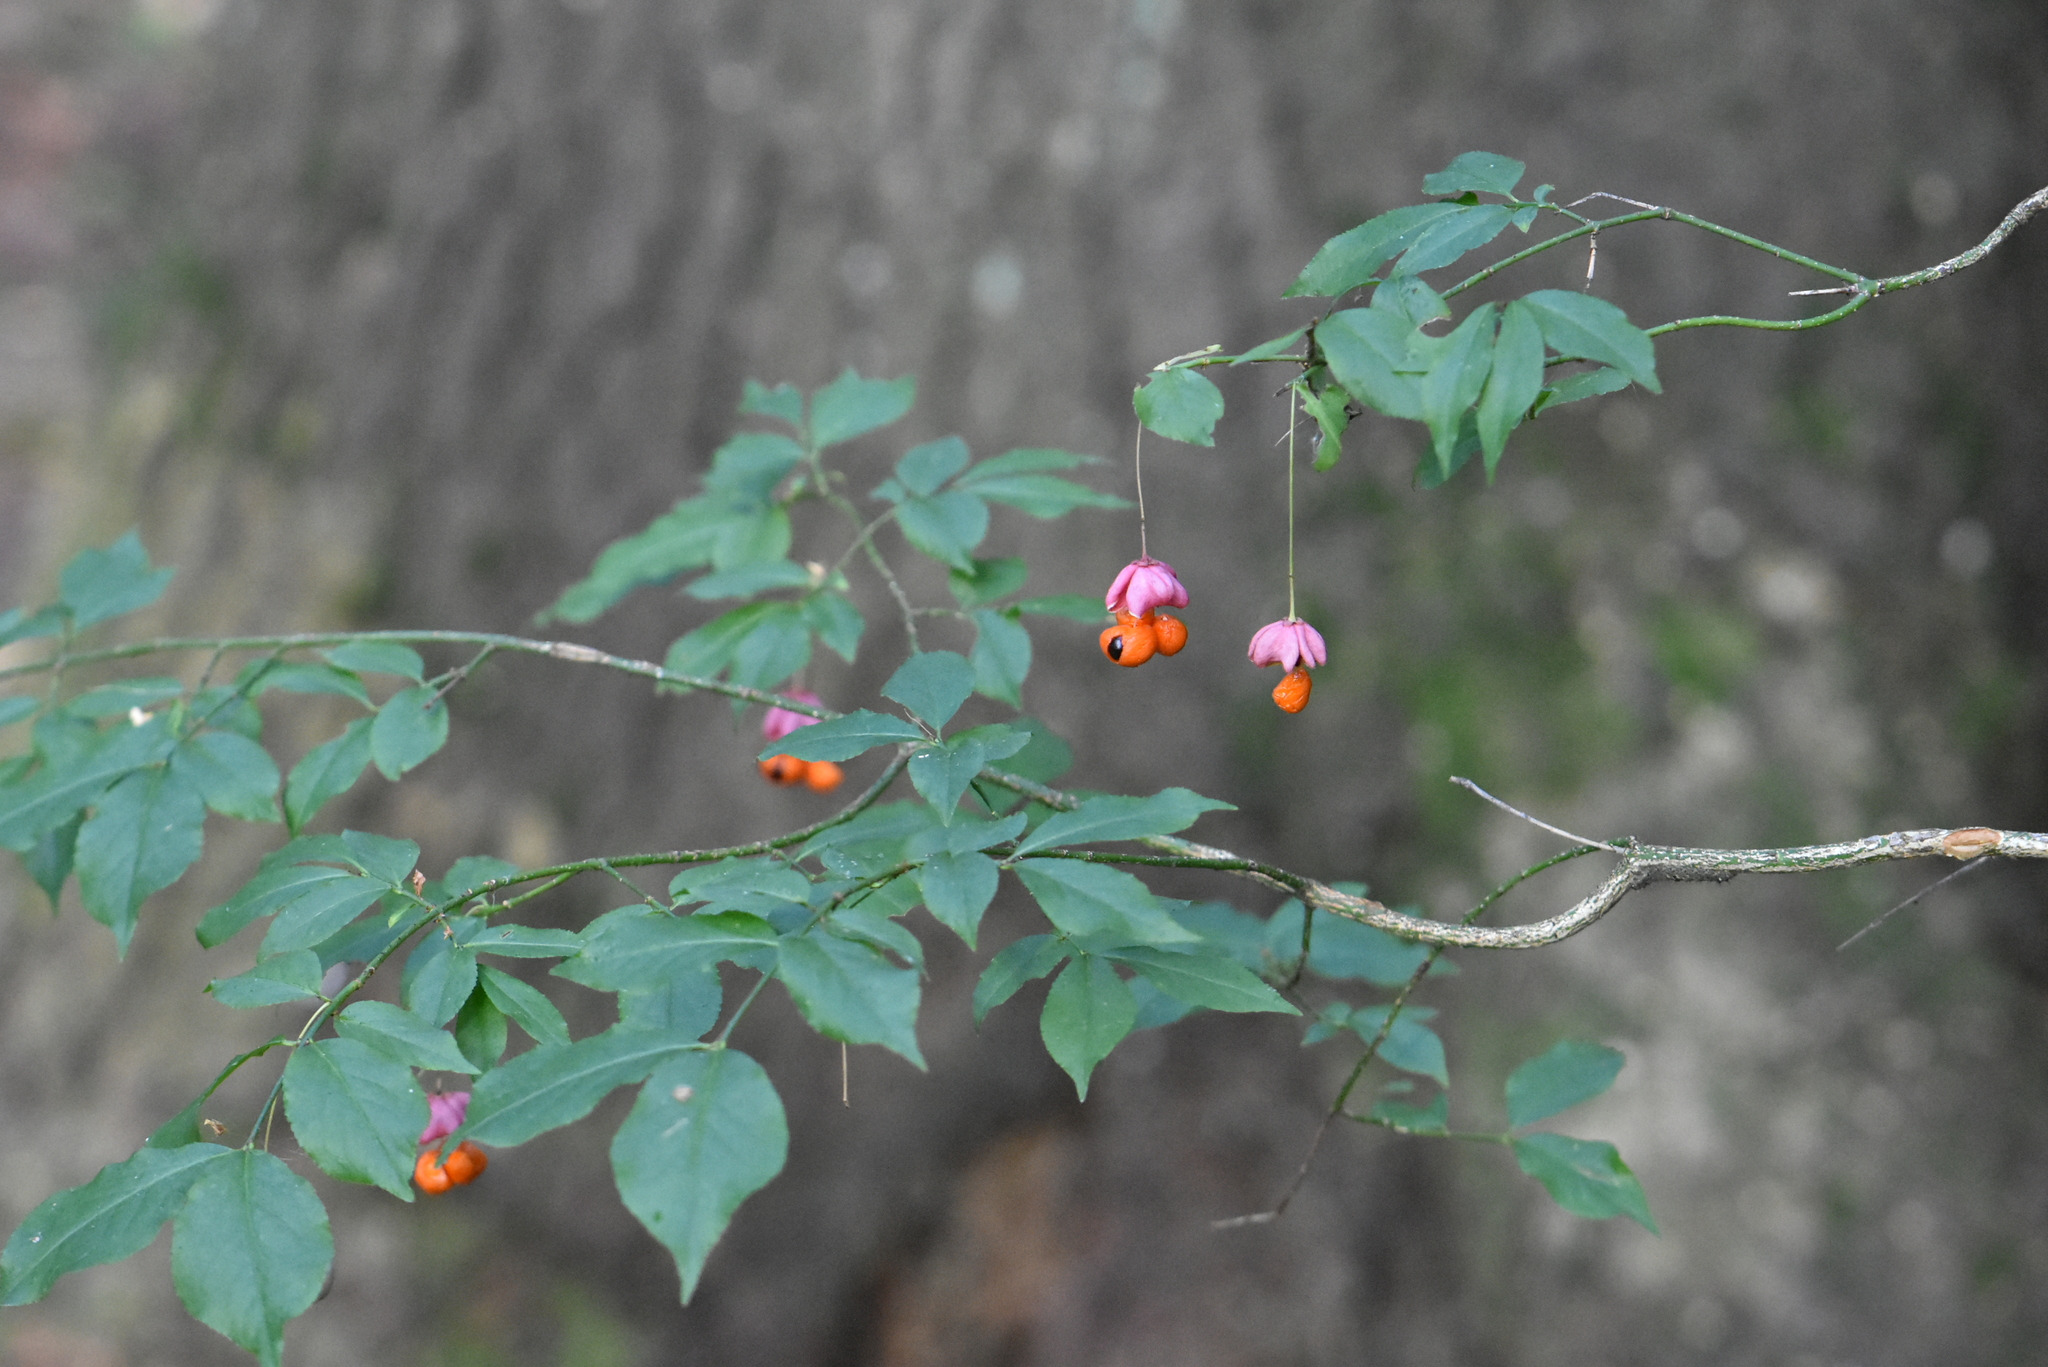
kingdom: Plantae
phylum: Tracheophyta
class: Magnoliopsida
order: Celastrales
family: Celastraceae
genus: Euonymus
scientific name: Euonymus verrucosus
